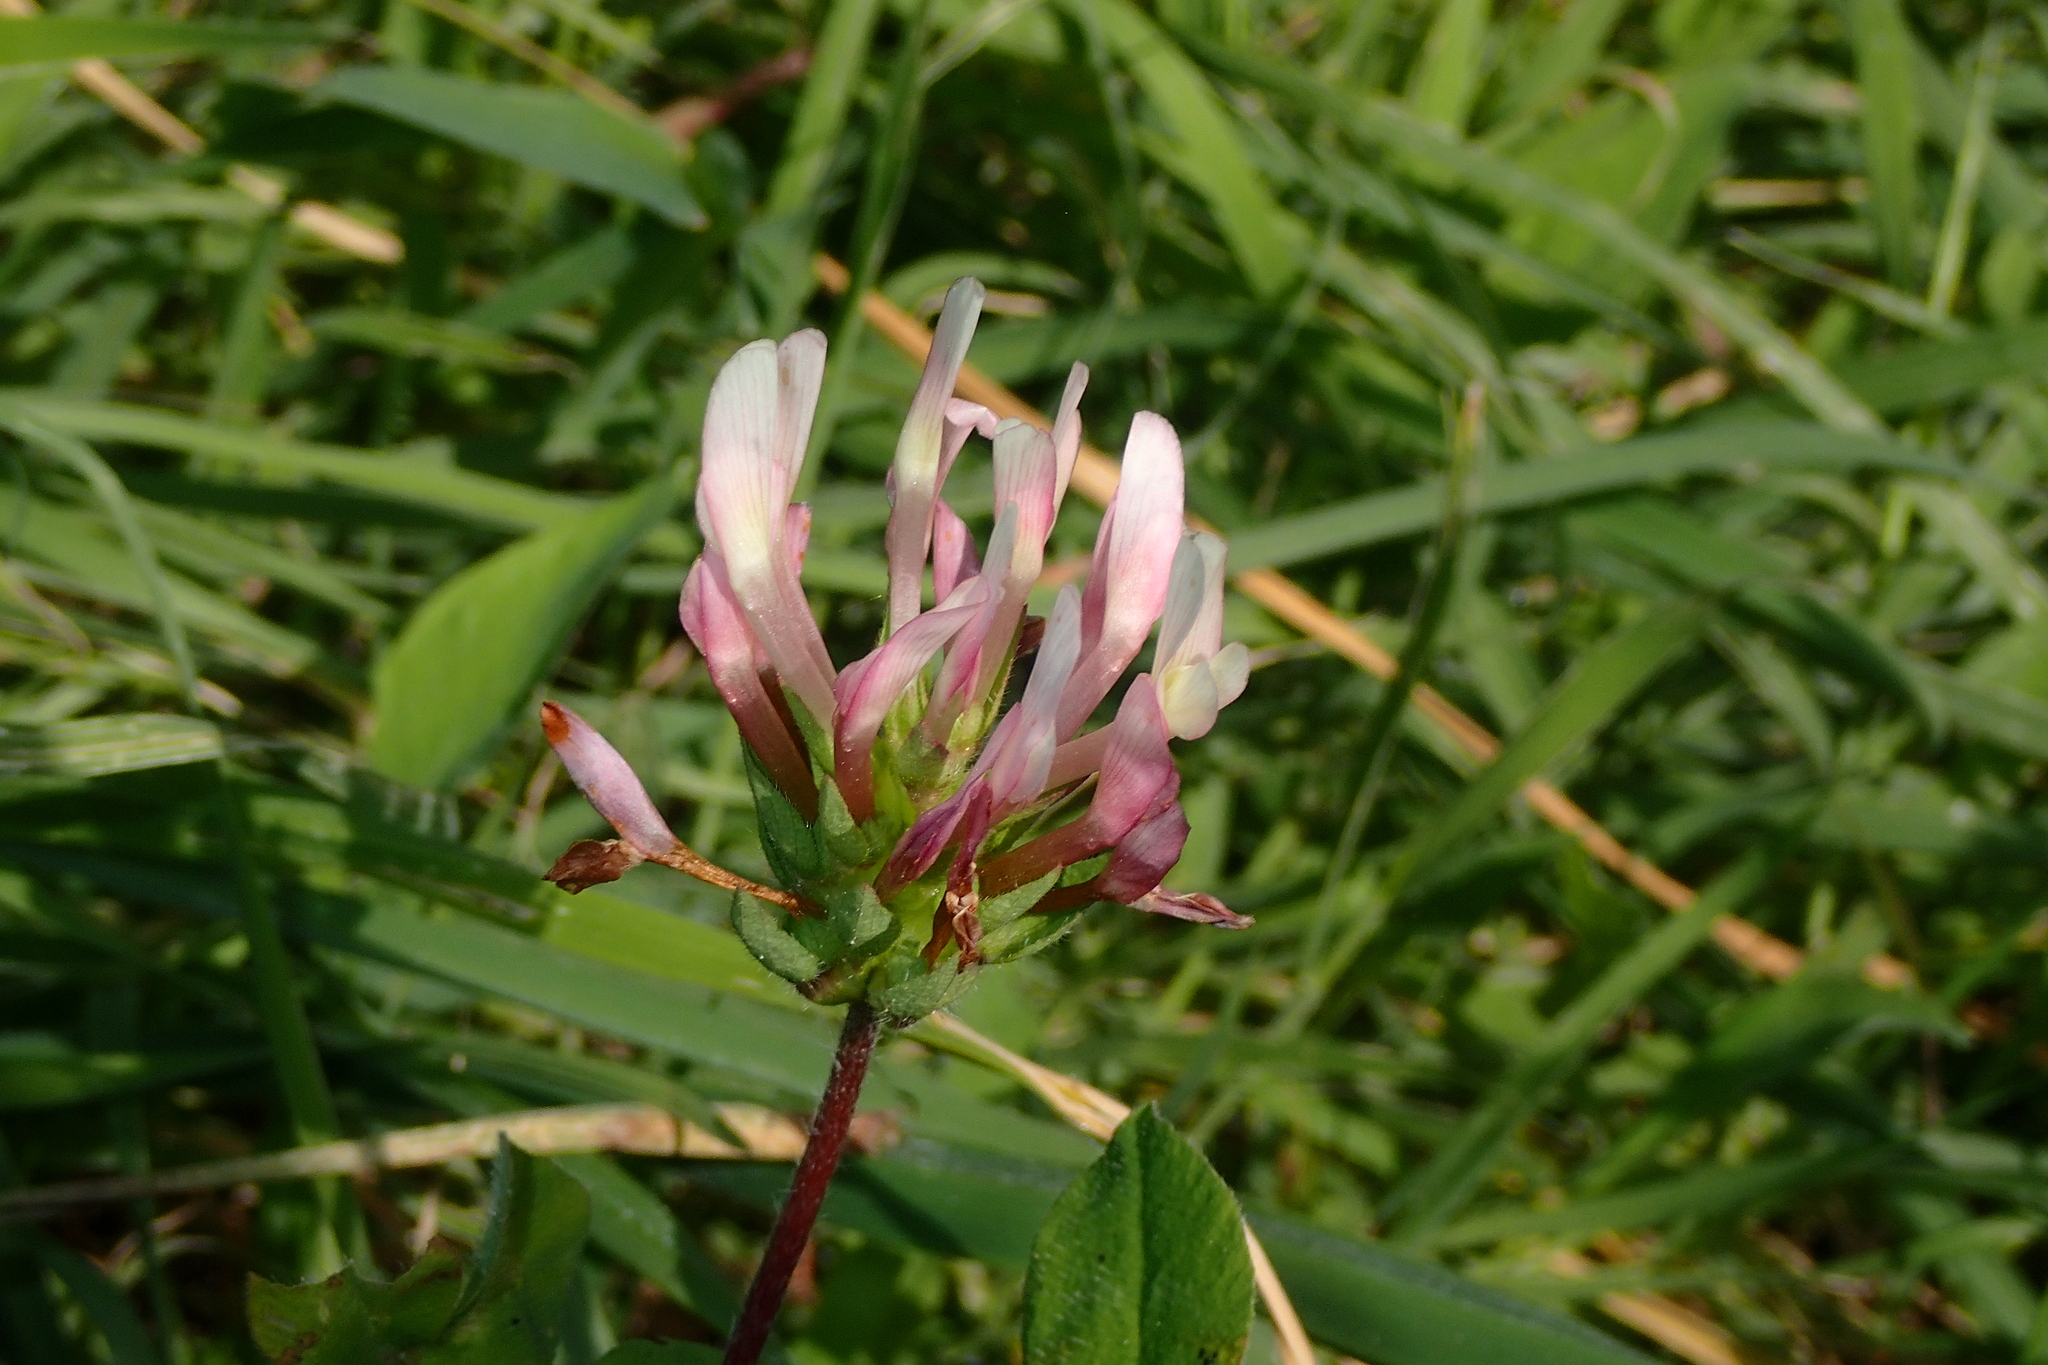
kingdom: Plantae
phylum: Tracheophyta
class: Magnoliopsida
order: Fabales
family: Fabaceae
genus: Trifolium
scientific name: Trifolium clypeatum
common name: Shield clover
